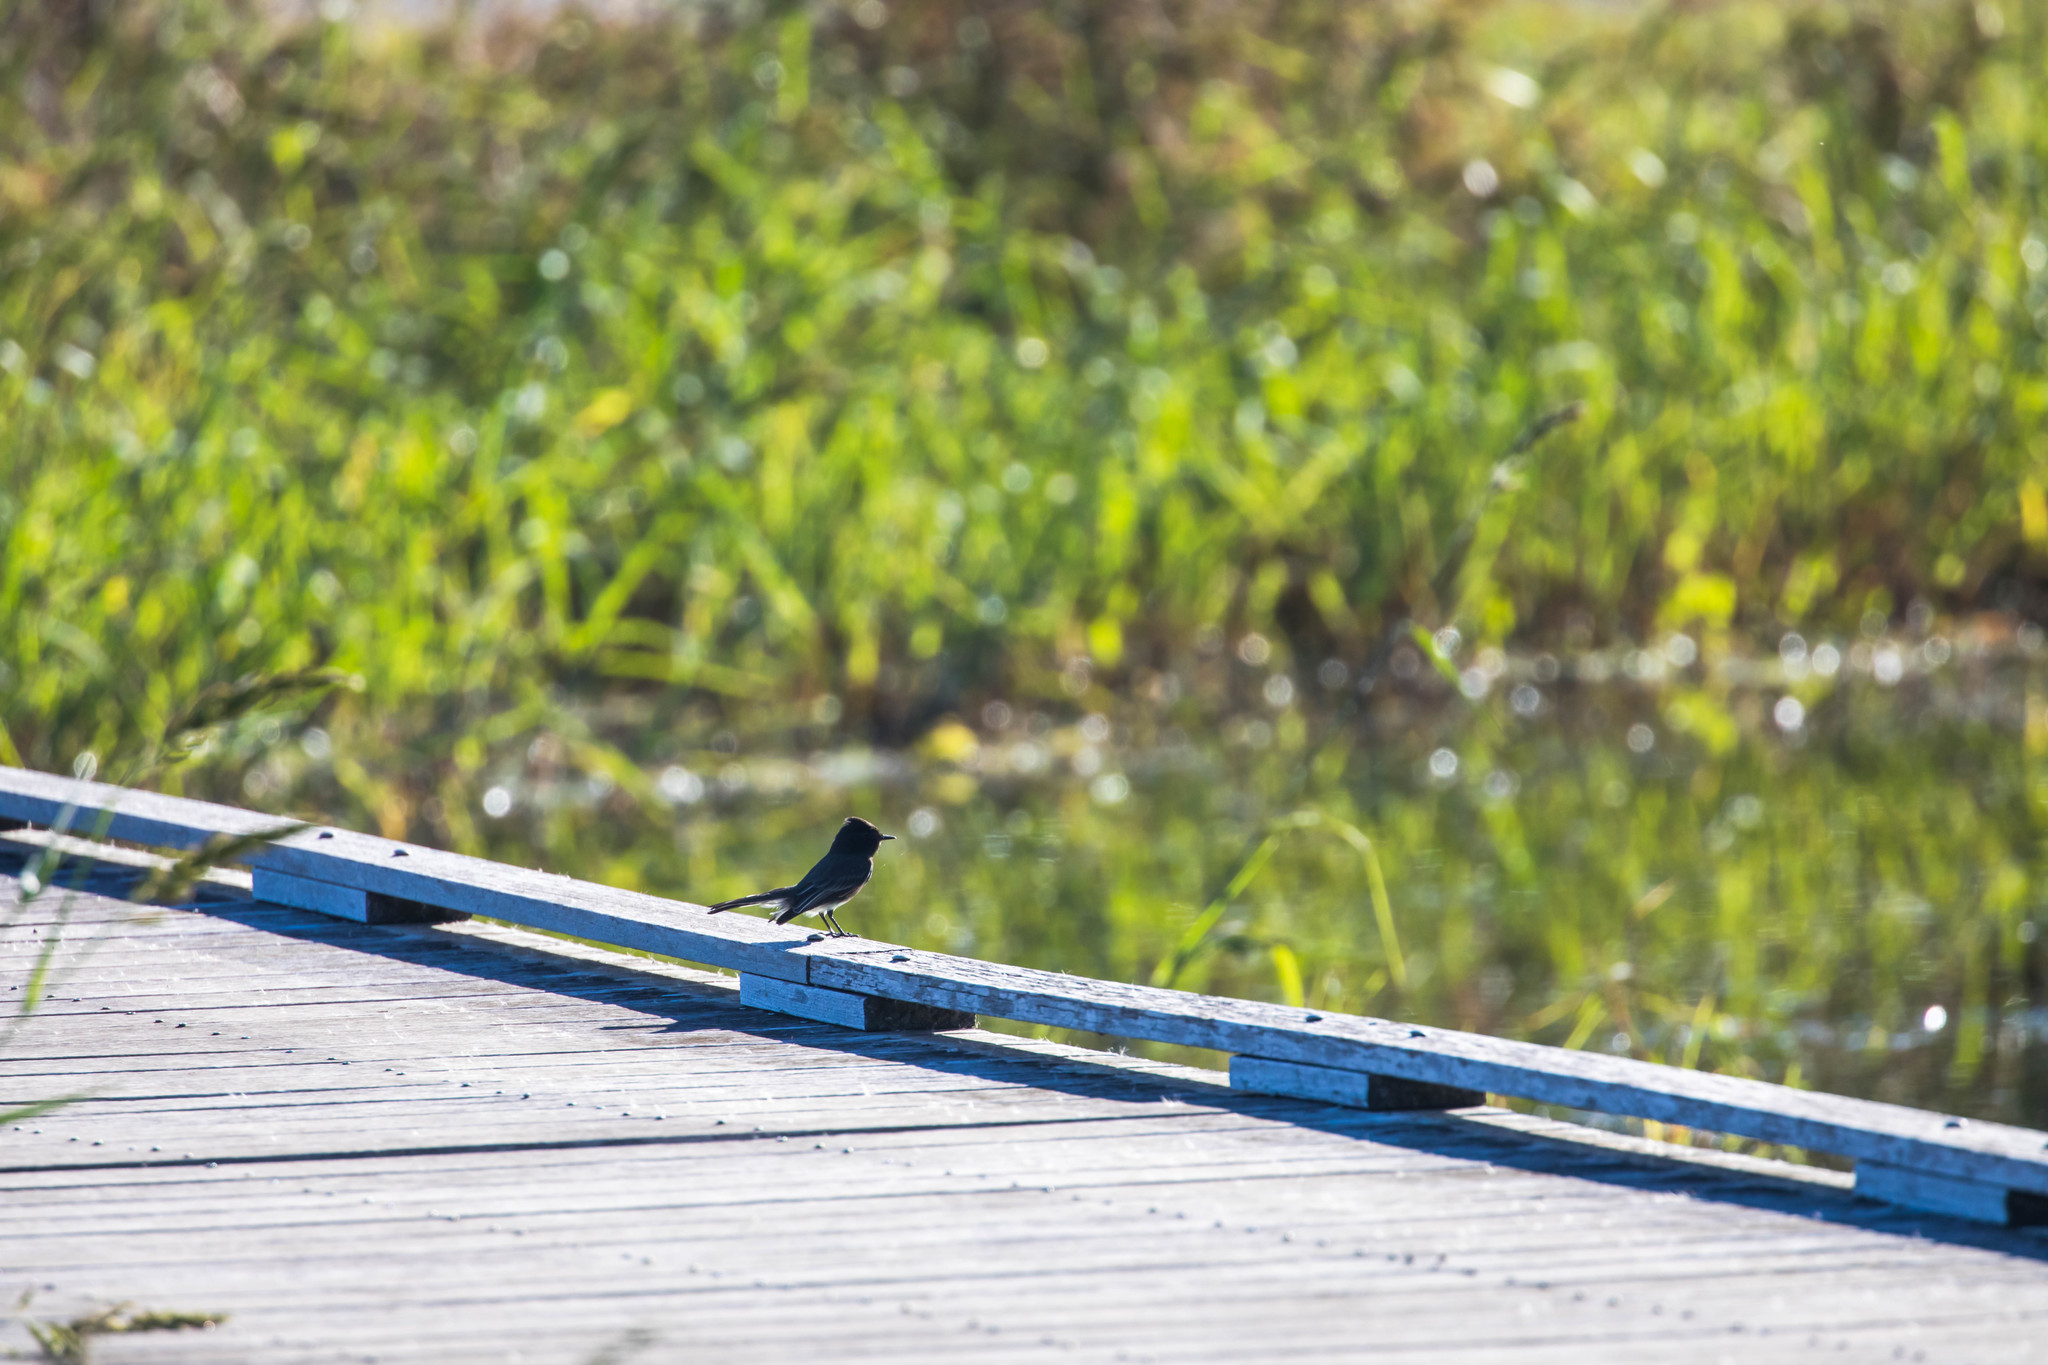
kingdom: Animalia
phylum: Chordata
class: Aves
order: Passeriformes
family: Tyrannidae
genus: Sayornis
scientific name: Sayornis nigricans
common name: Black phoebe
